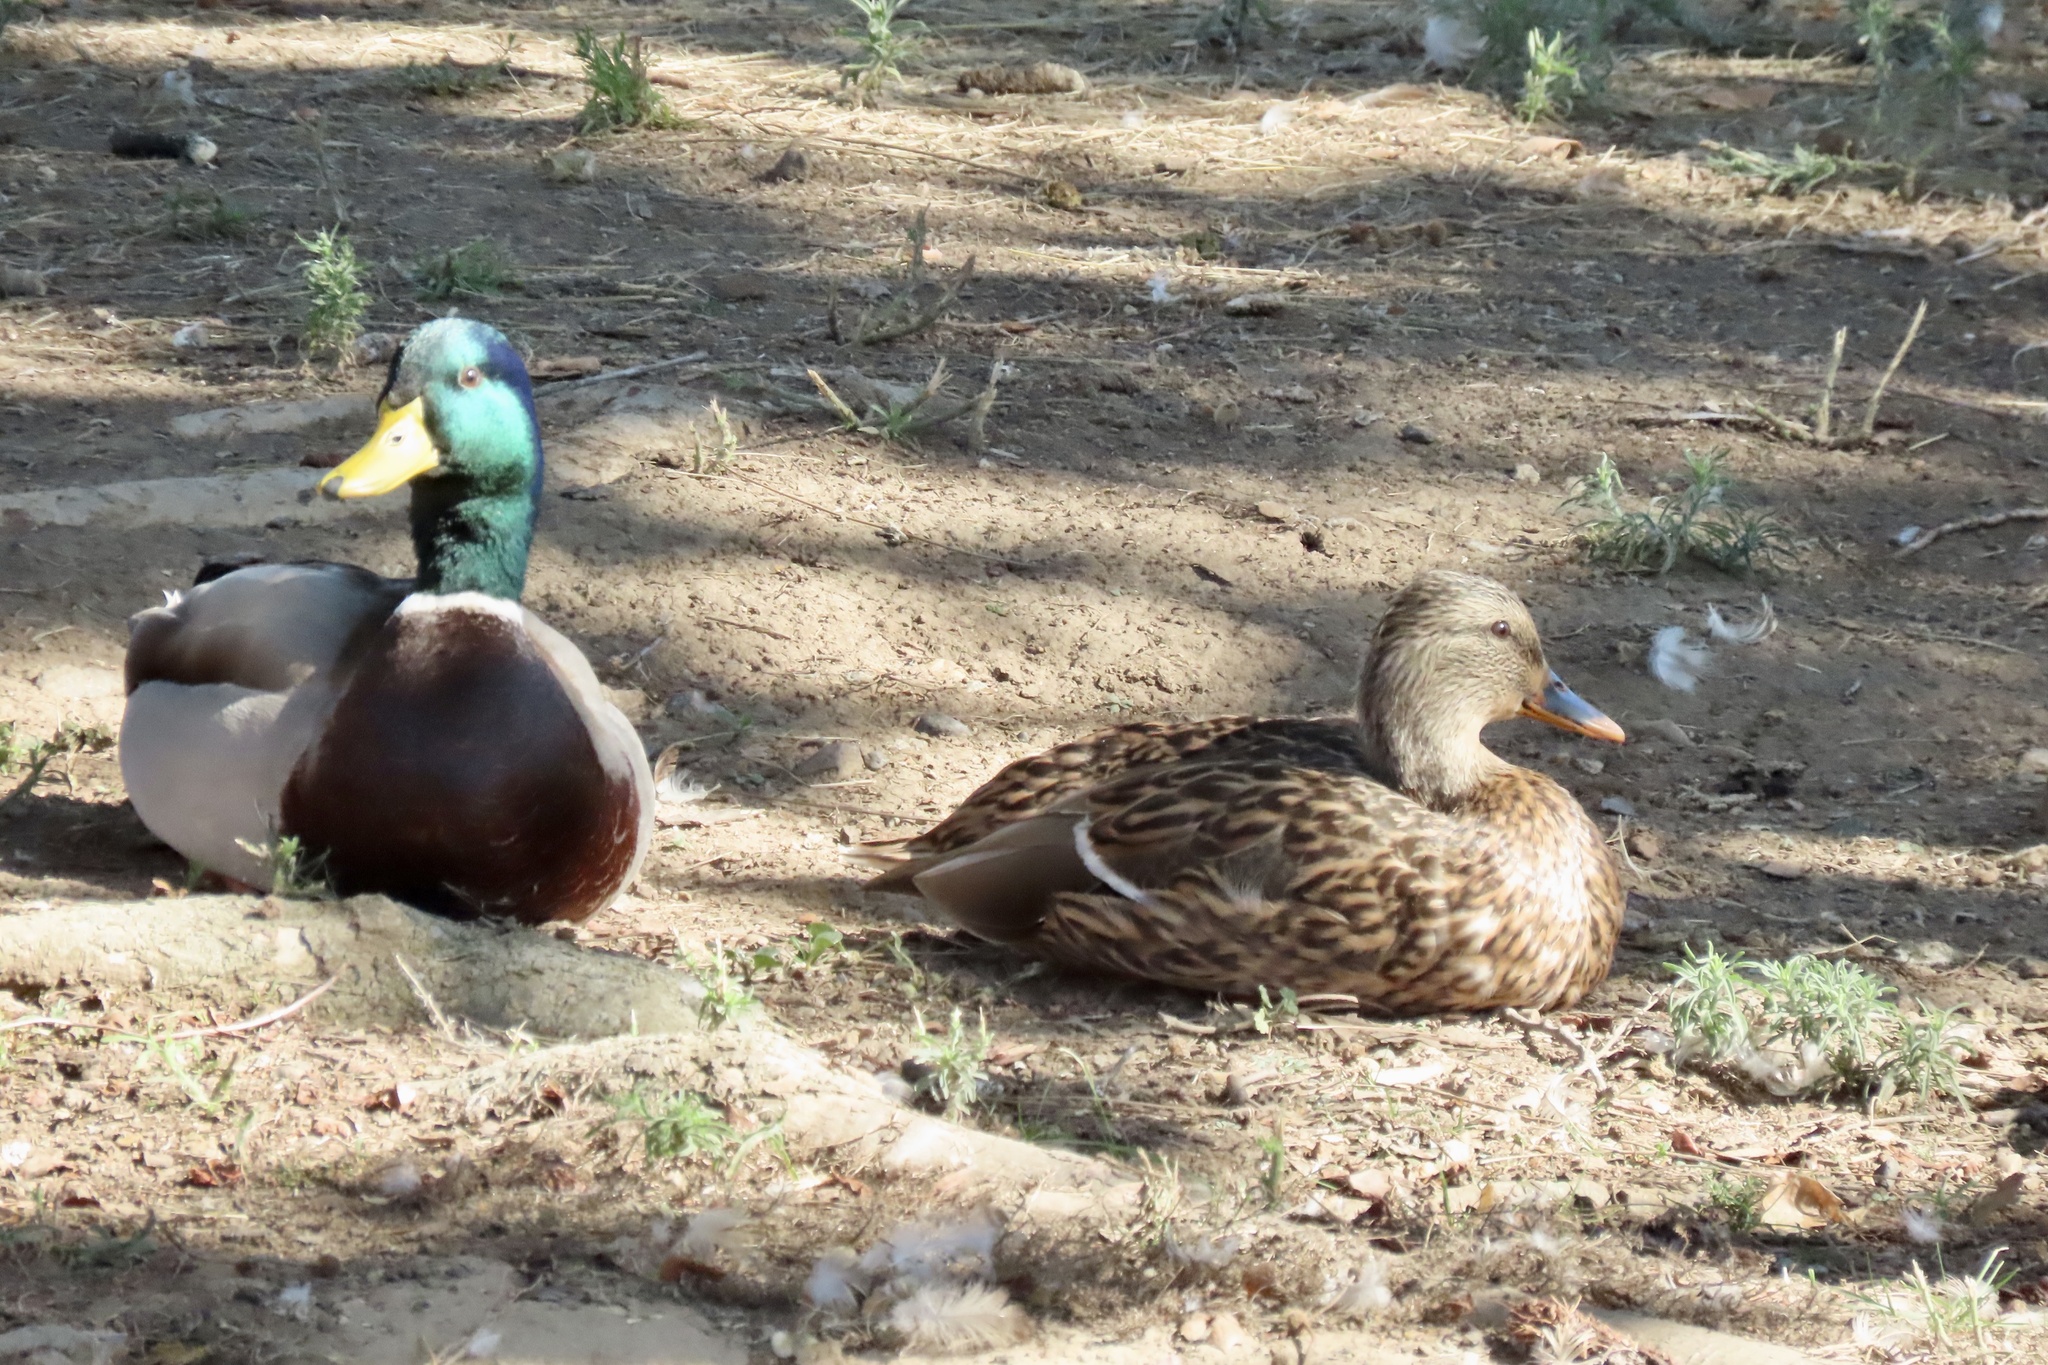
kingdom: Animalia
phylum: Chordata
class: Aves
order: Anseriformes
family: Anatidae
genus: Anas
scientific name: Anas platyrhynchos
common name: Mallard
